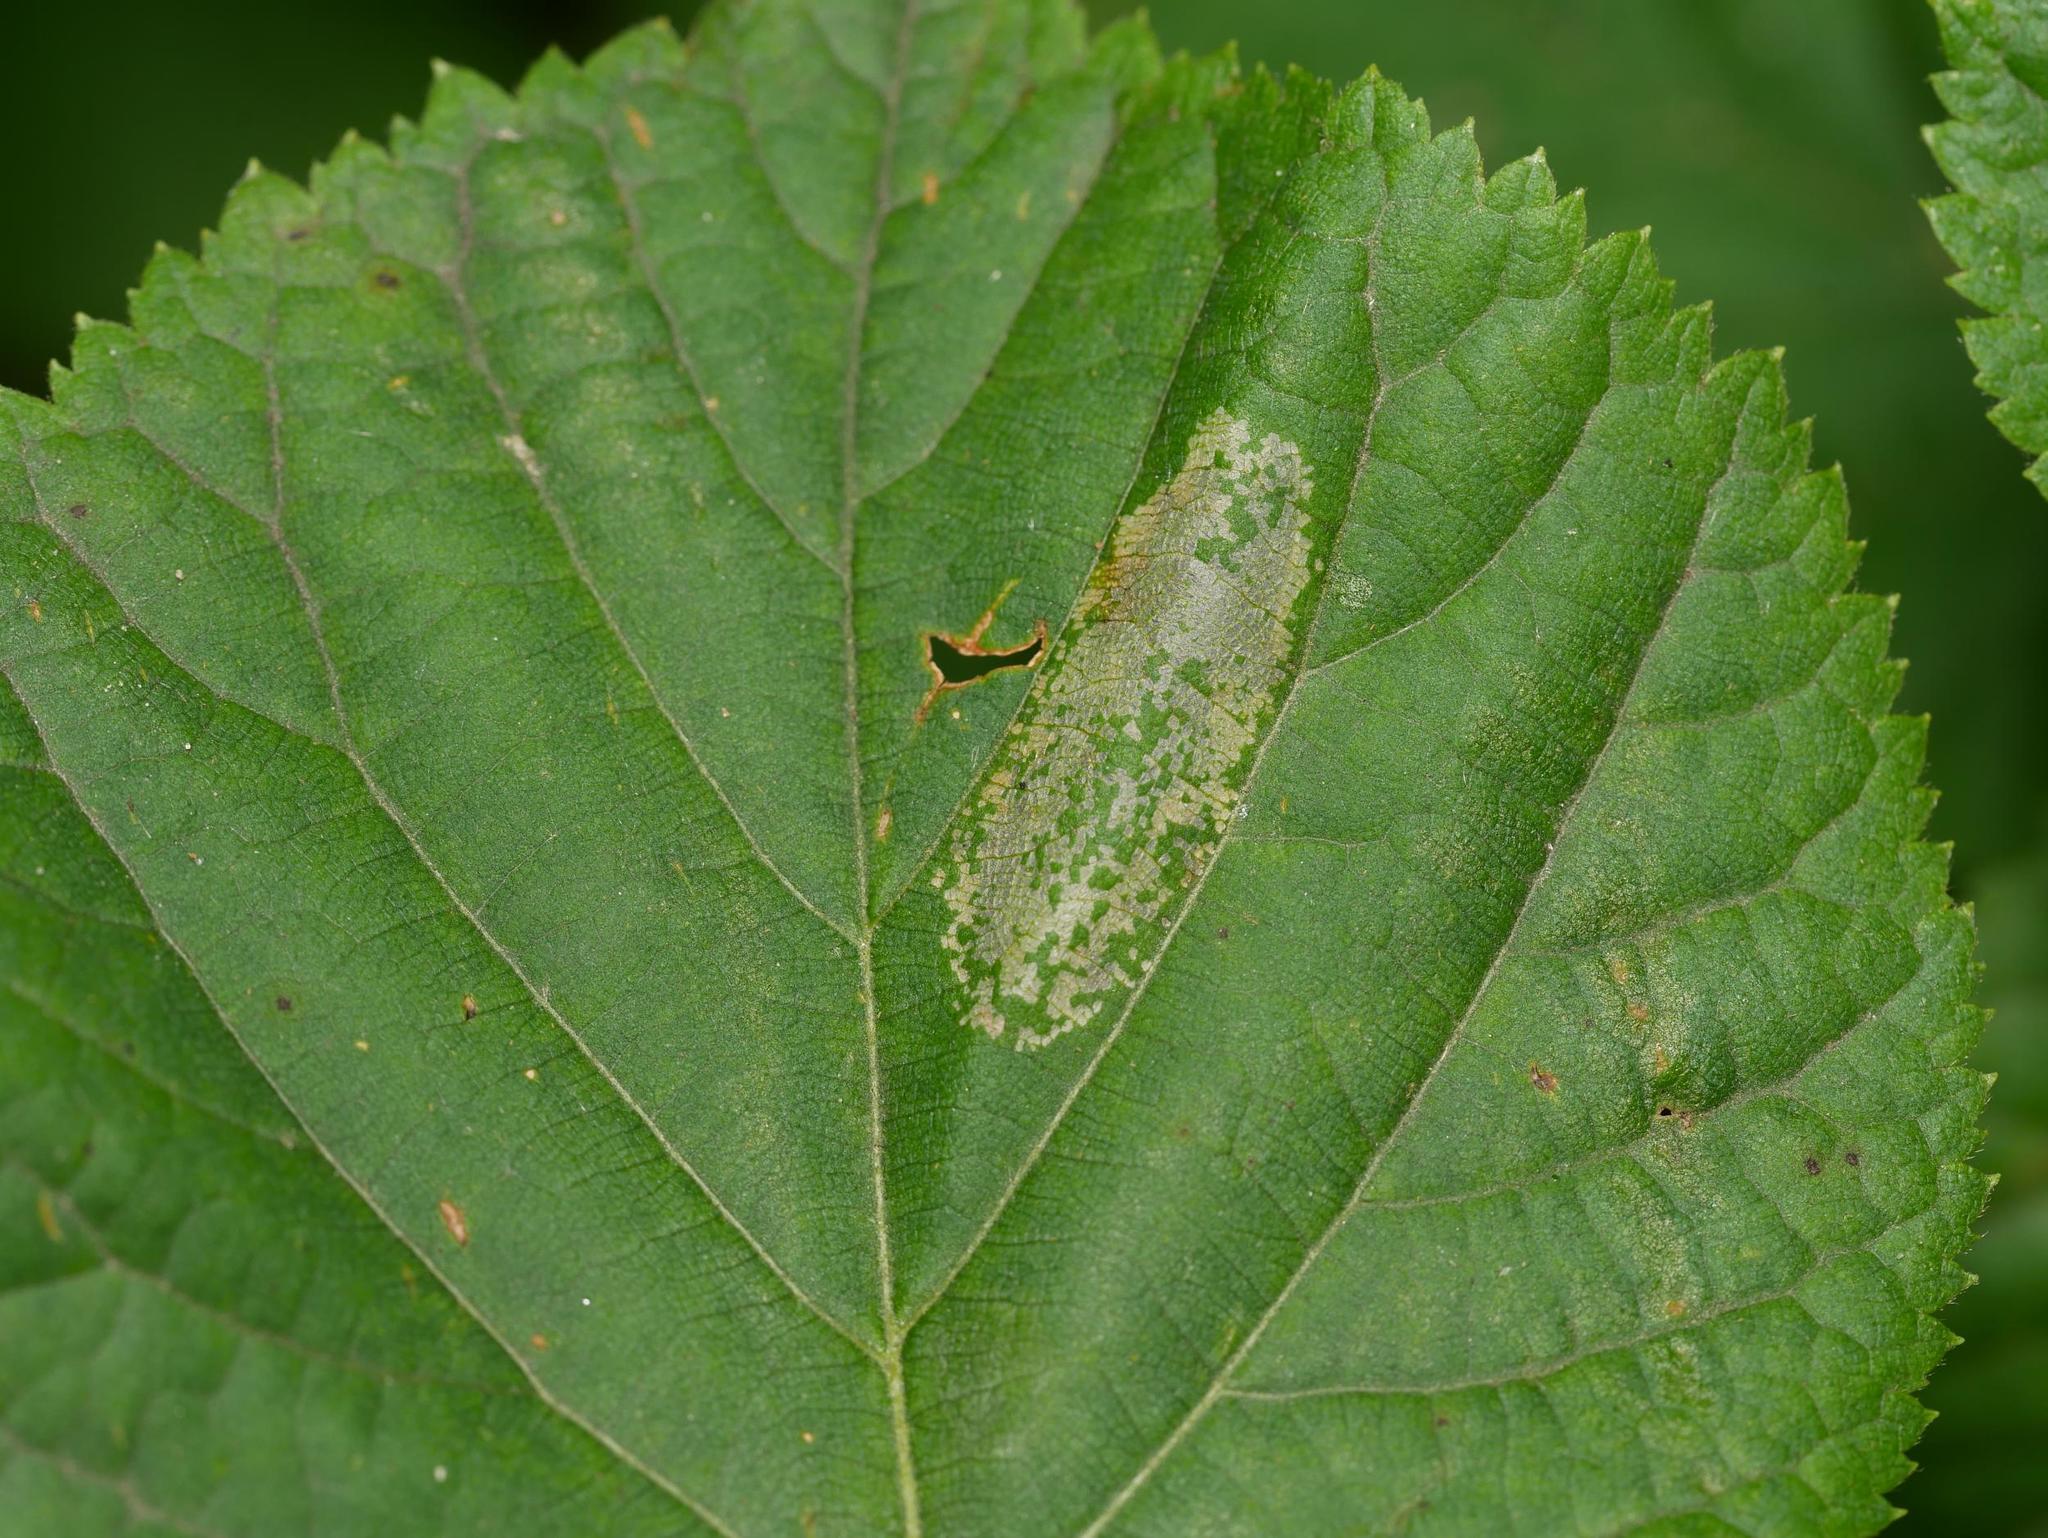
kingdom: Animalia
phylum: Arthropoda
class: Insecta
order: Lepidoptera
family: Gracillariidae
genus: Phyllonorycter
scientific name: Phyllonorycter issikii
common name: Linden midget
